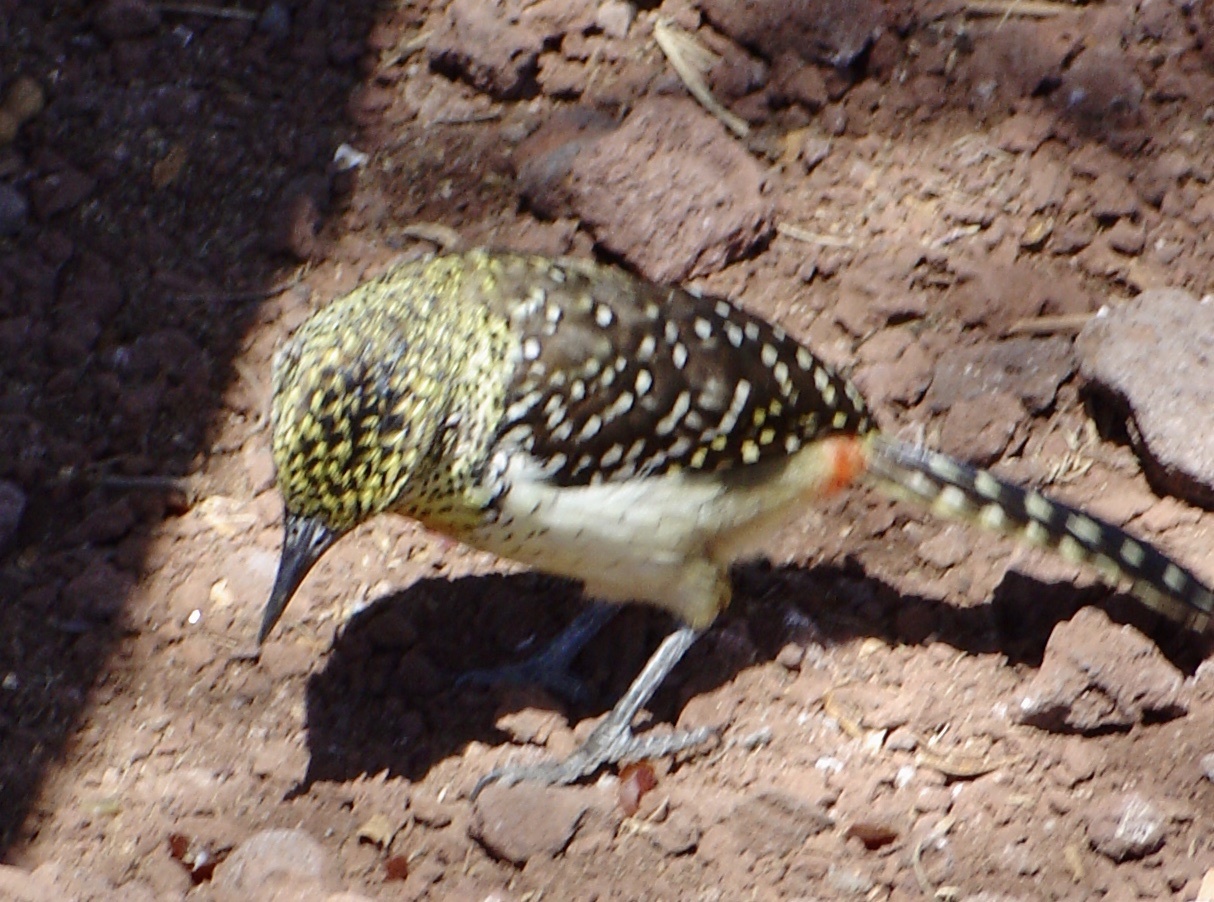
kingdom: Animalia
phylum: Chordata
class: Aves
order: Piciformes
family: Lybiidae
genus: Trachyphonus
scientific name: Trachyphonus darnaudii
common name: D'arnaud's barbet
